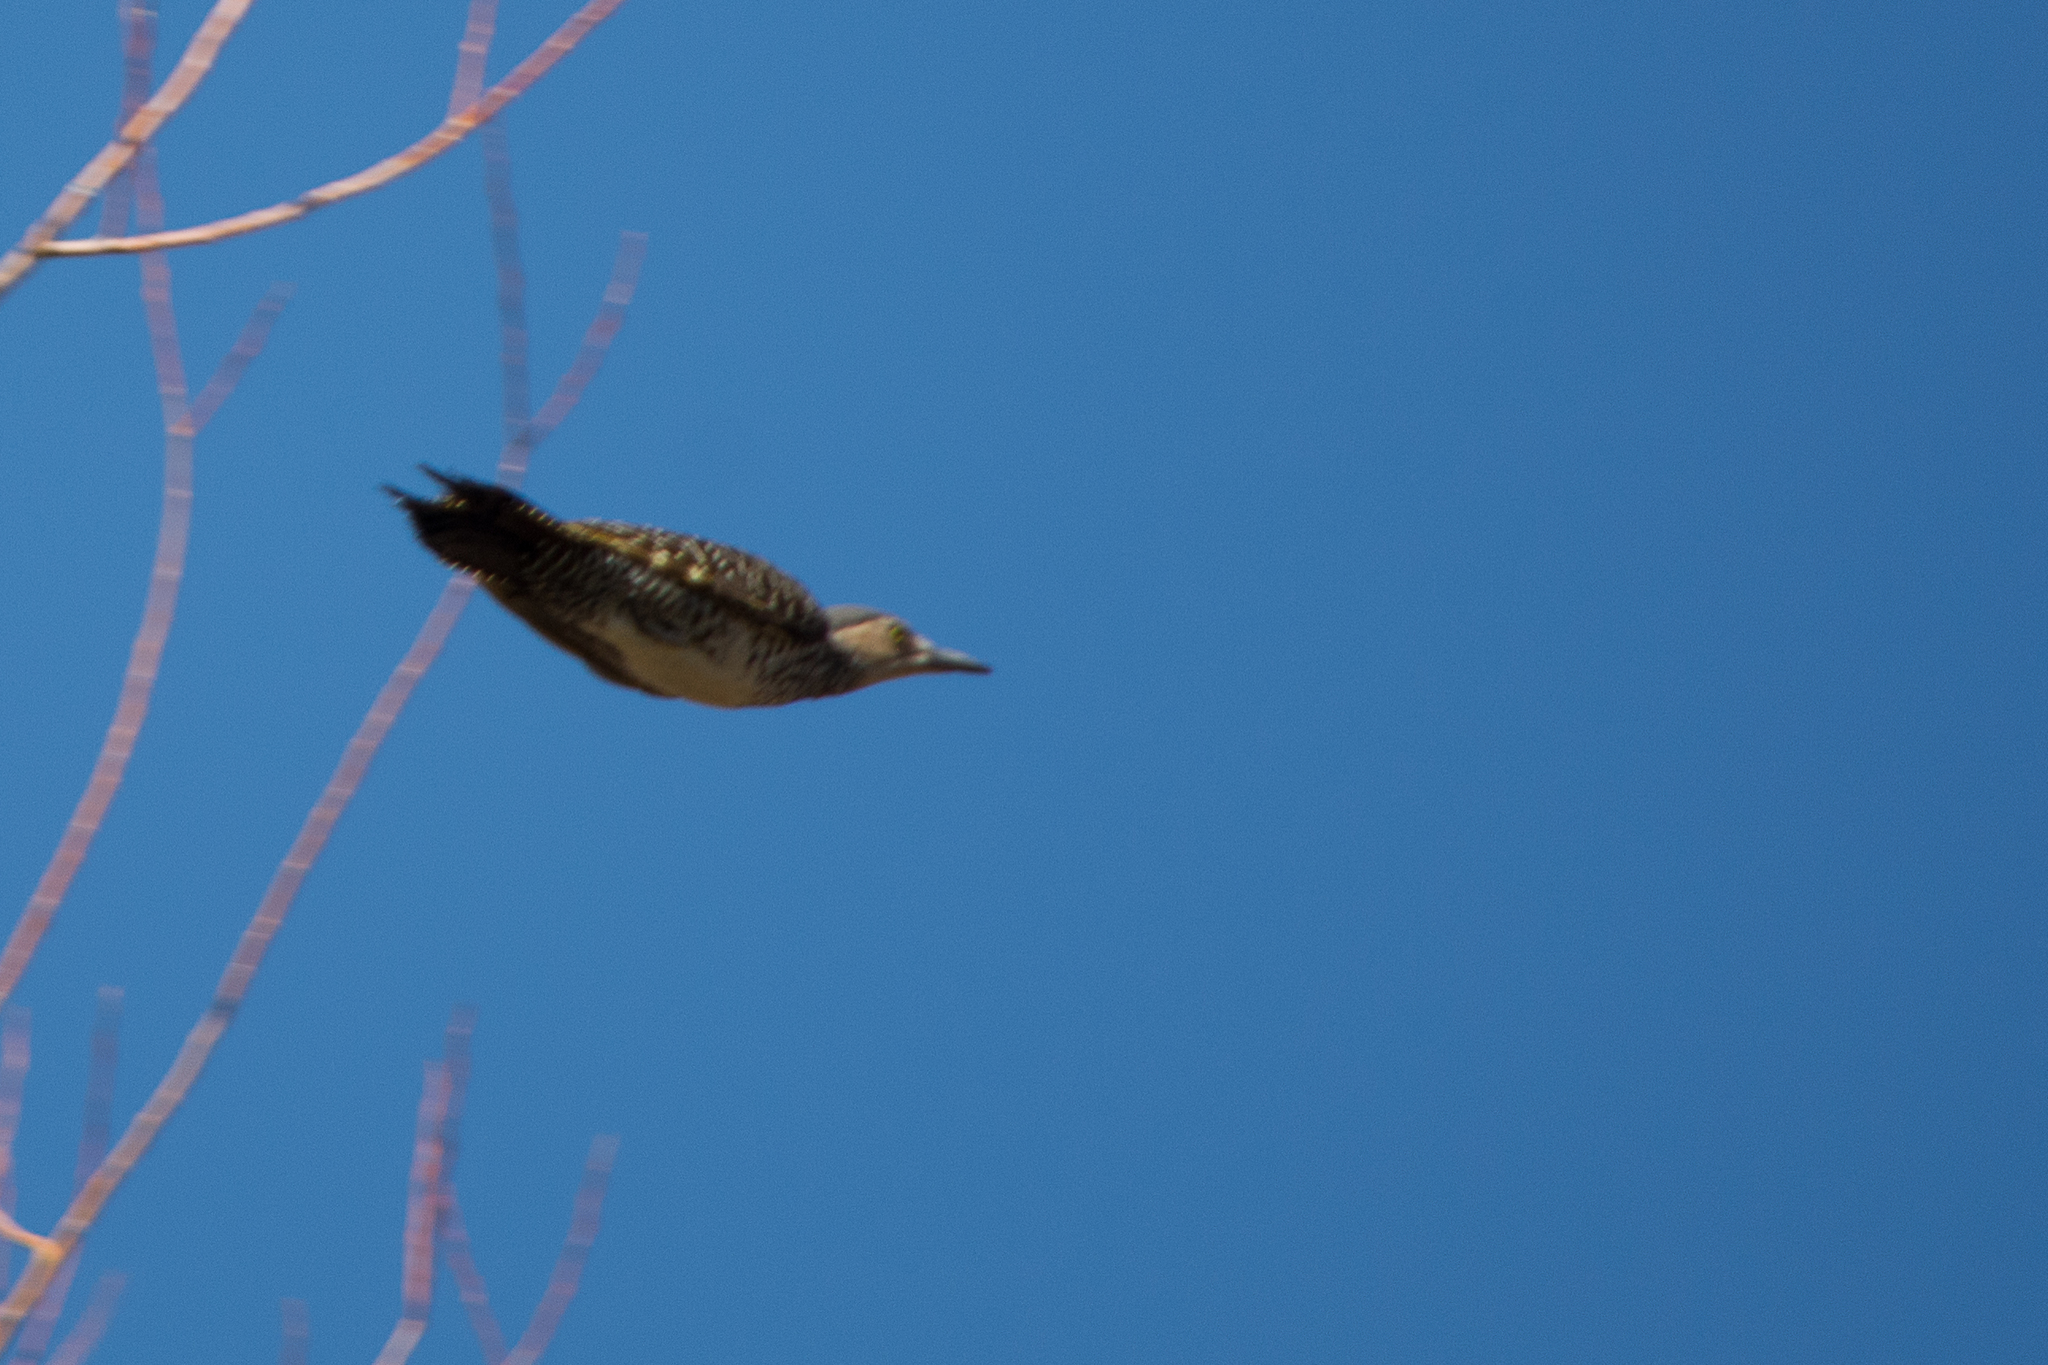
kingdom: Animalia
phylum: Chordata
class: Aves
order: Piciformes
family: Picidae
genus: Colaptes
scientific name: Colaptes pitius
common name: Chilean flicker
